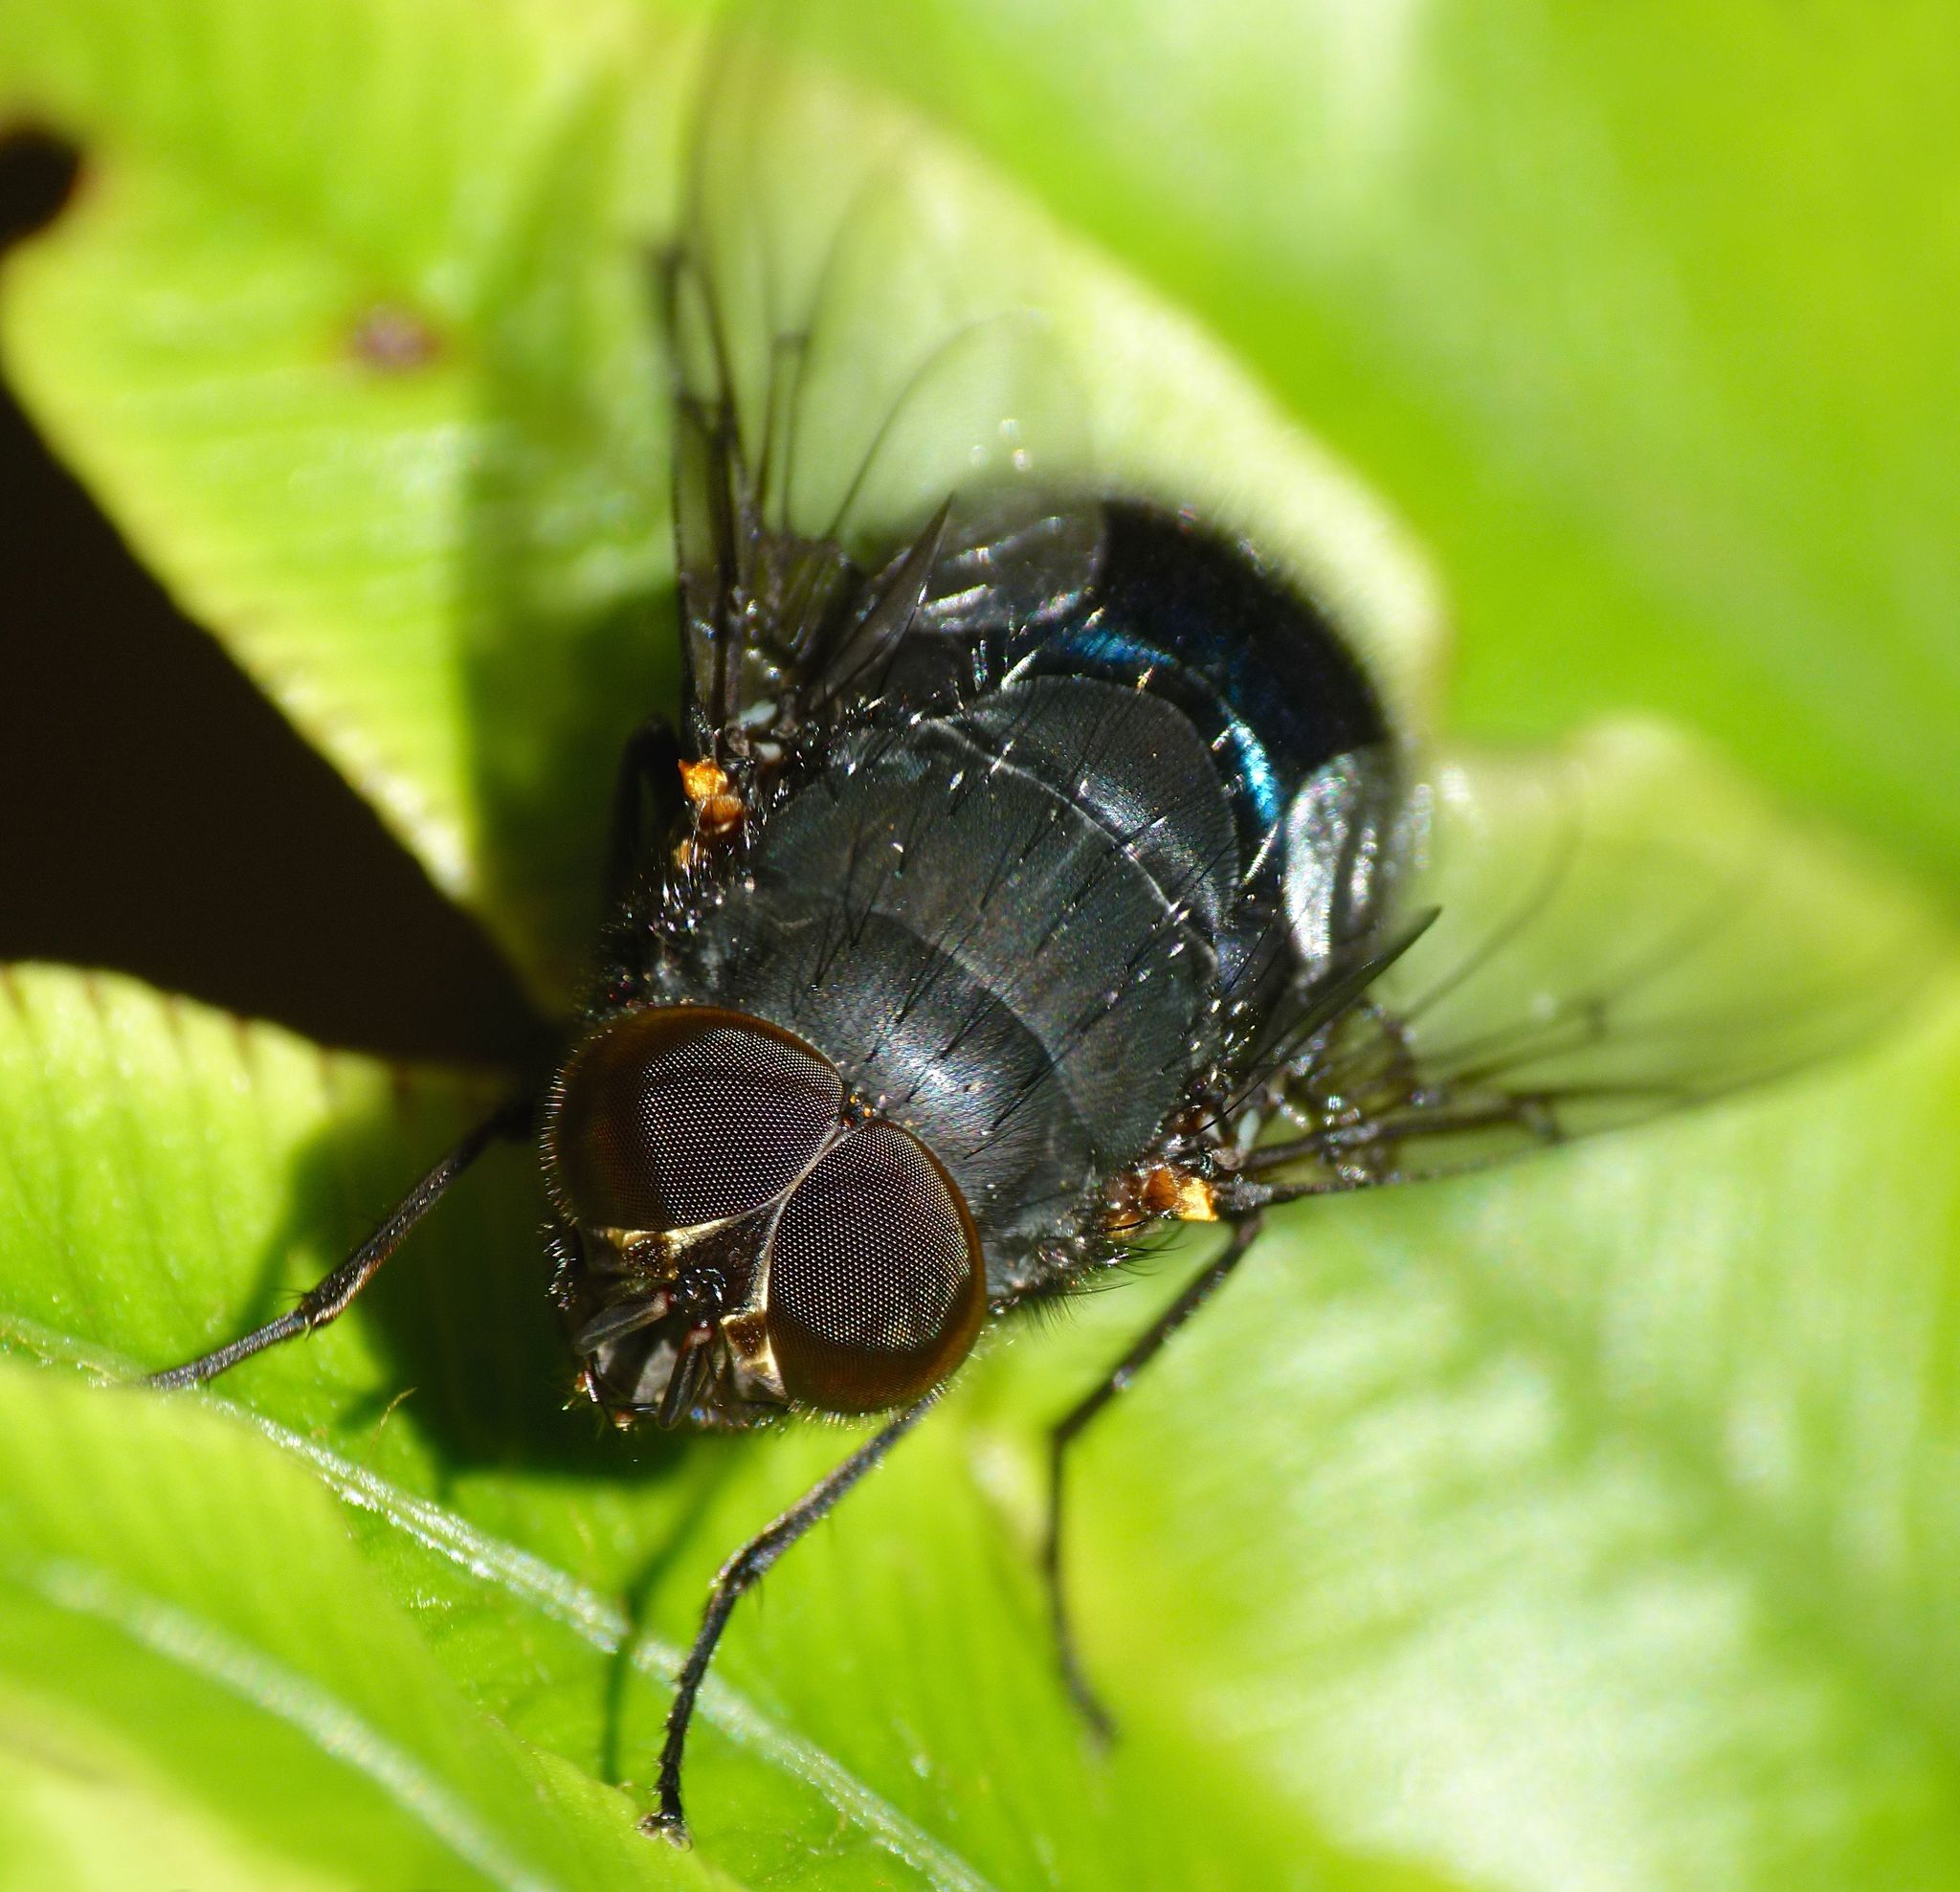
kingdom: Animalia
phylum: Arthropoda
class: Insecta
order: Diptera
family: Calliphoridae
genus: Calliphora
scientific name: Calliphora quadrimaculata
